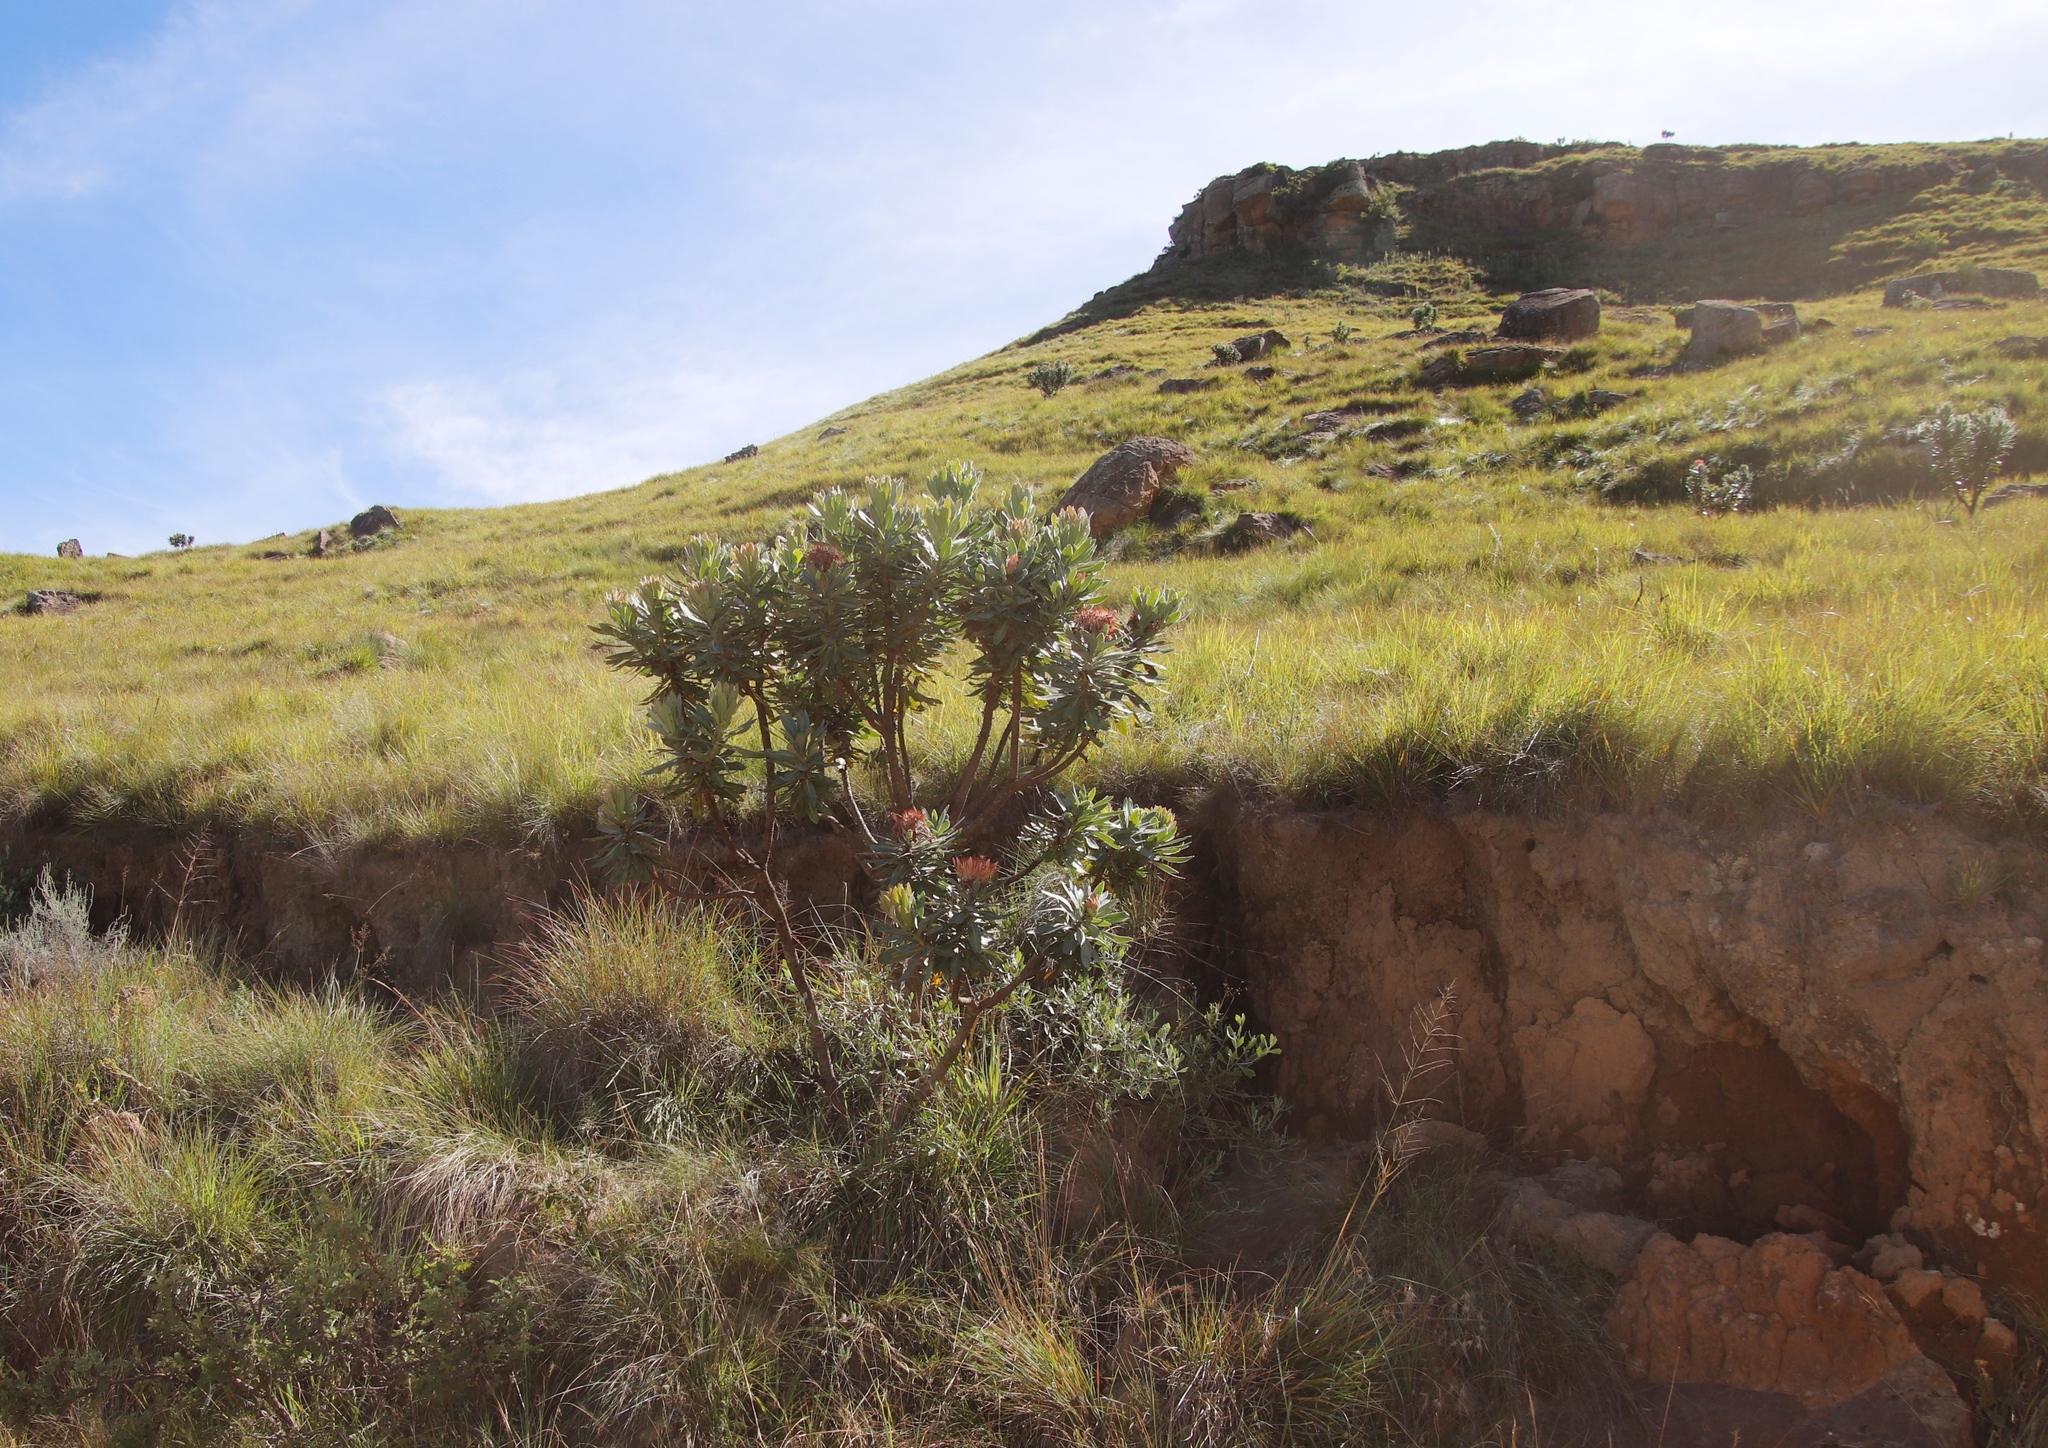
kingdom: Plantae
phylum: Tracheophyta
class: Magnoliopsida
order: Proteales
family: Proteaceae
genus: Protea
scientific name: Protea roupelliae
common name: Silver sugarbush
